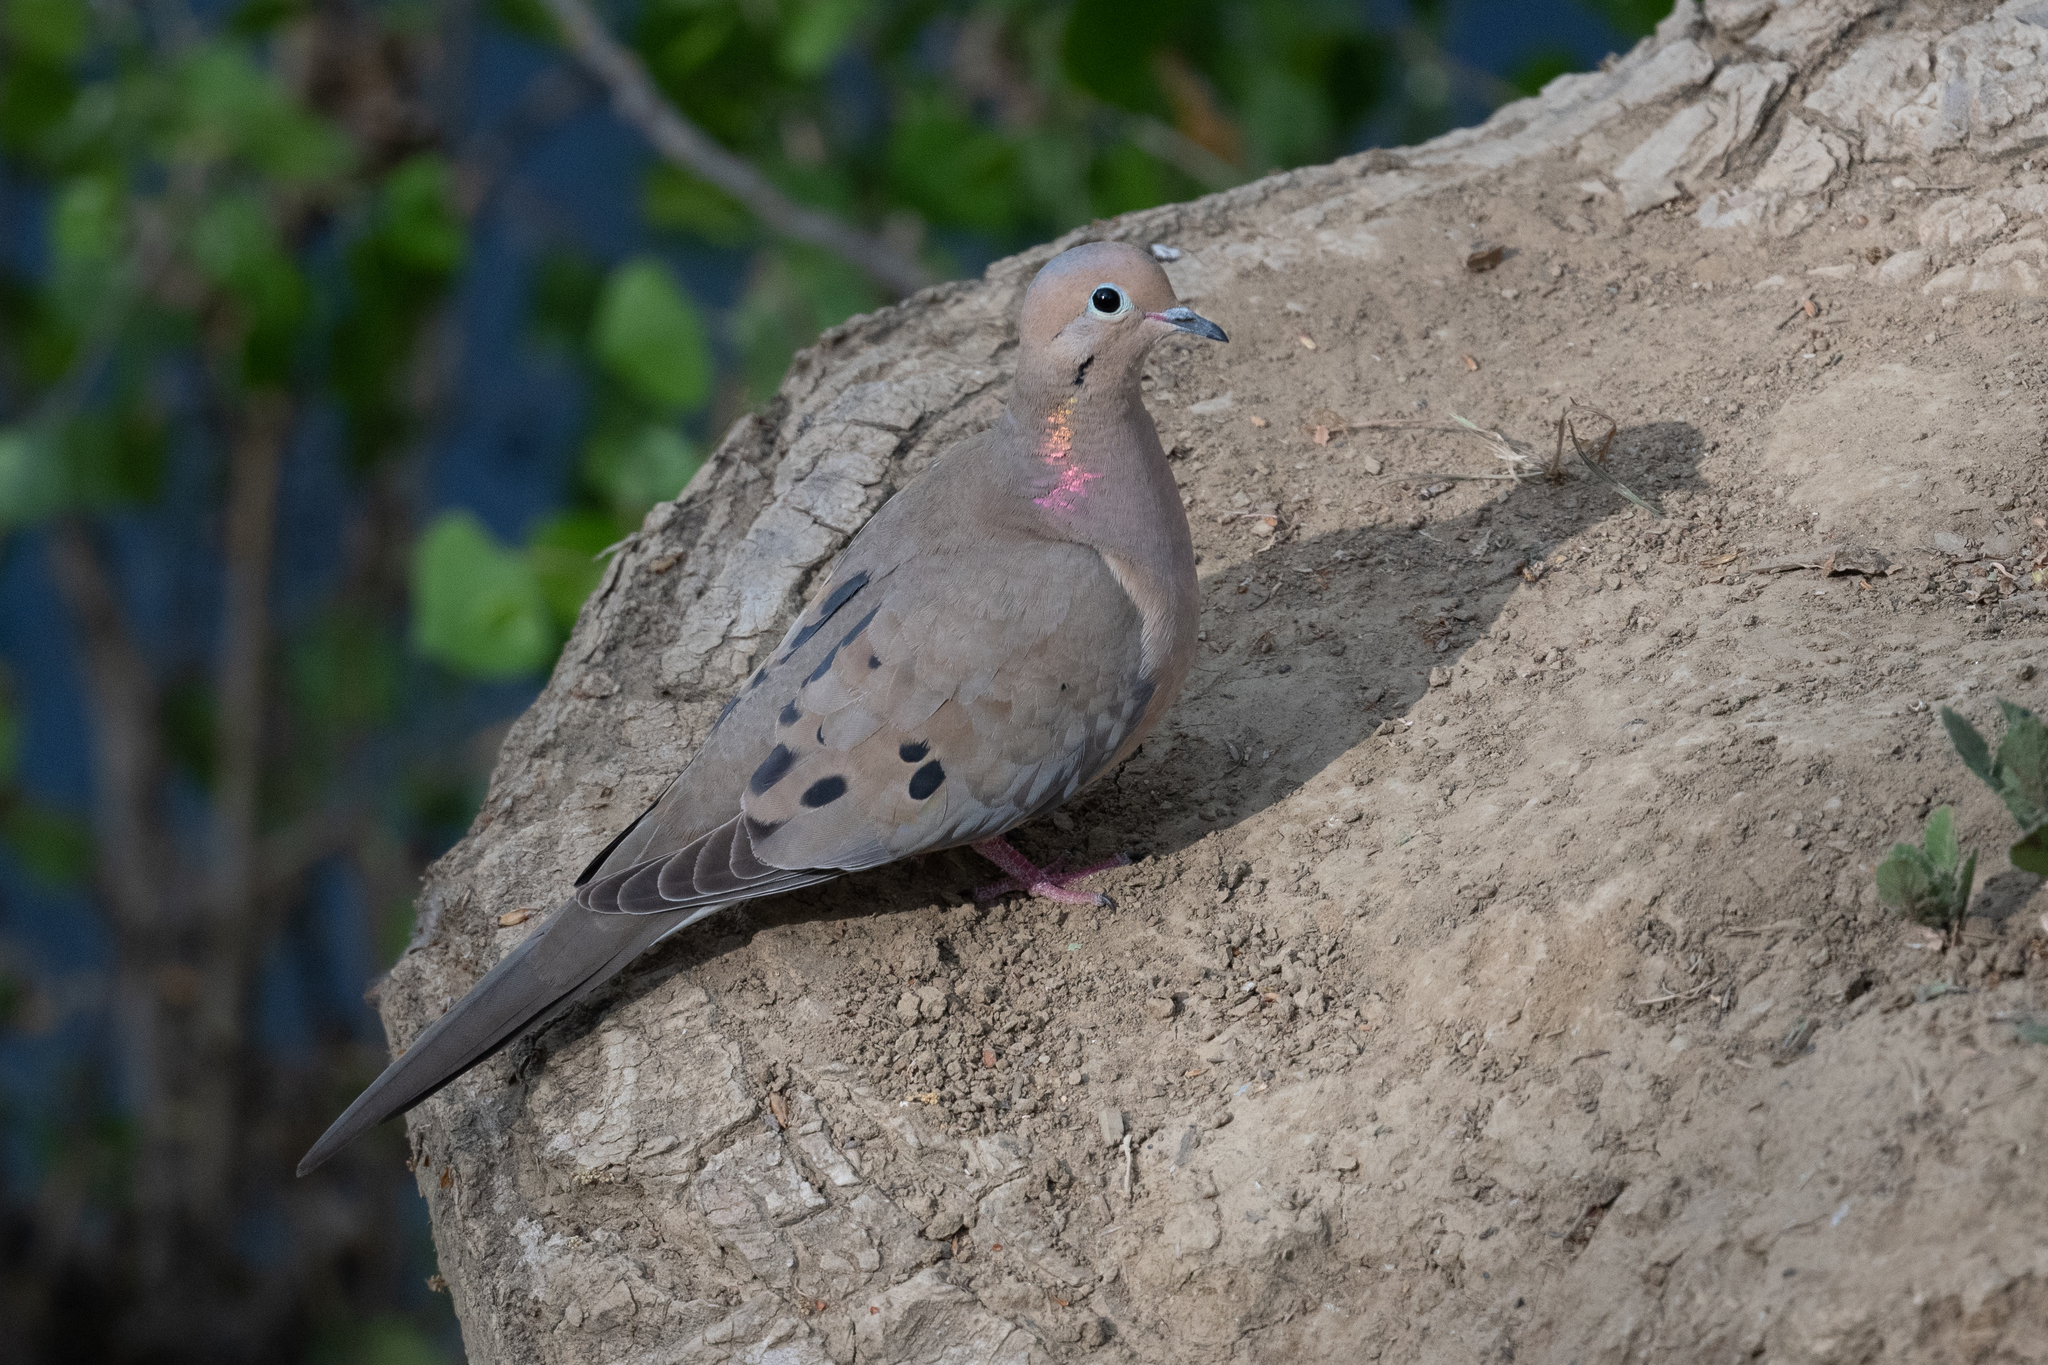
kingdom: Animalia
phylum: Chordata
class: Aves
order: Columbiformes
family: Columbidae
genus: Zenaida
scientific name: Zenaida macroura
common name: Mourning dove
